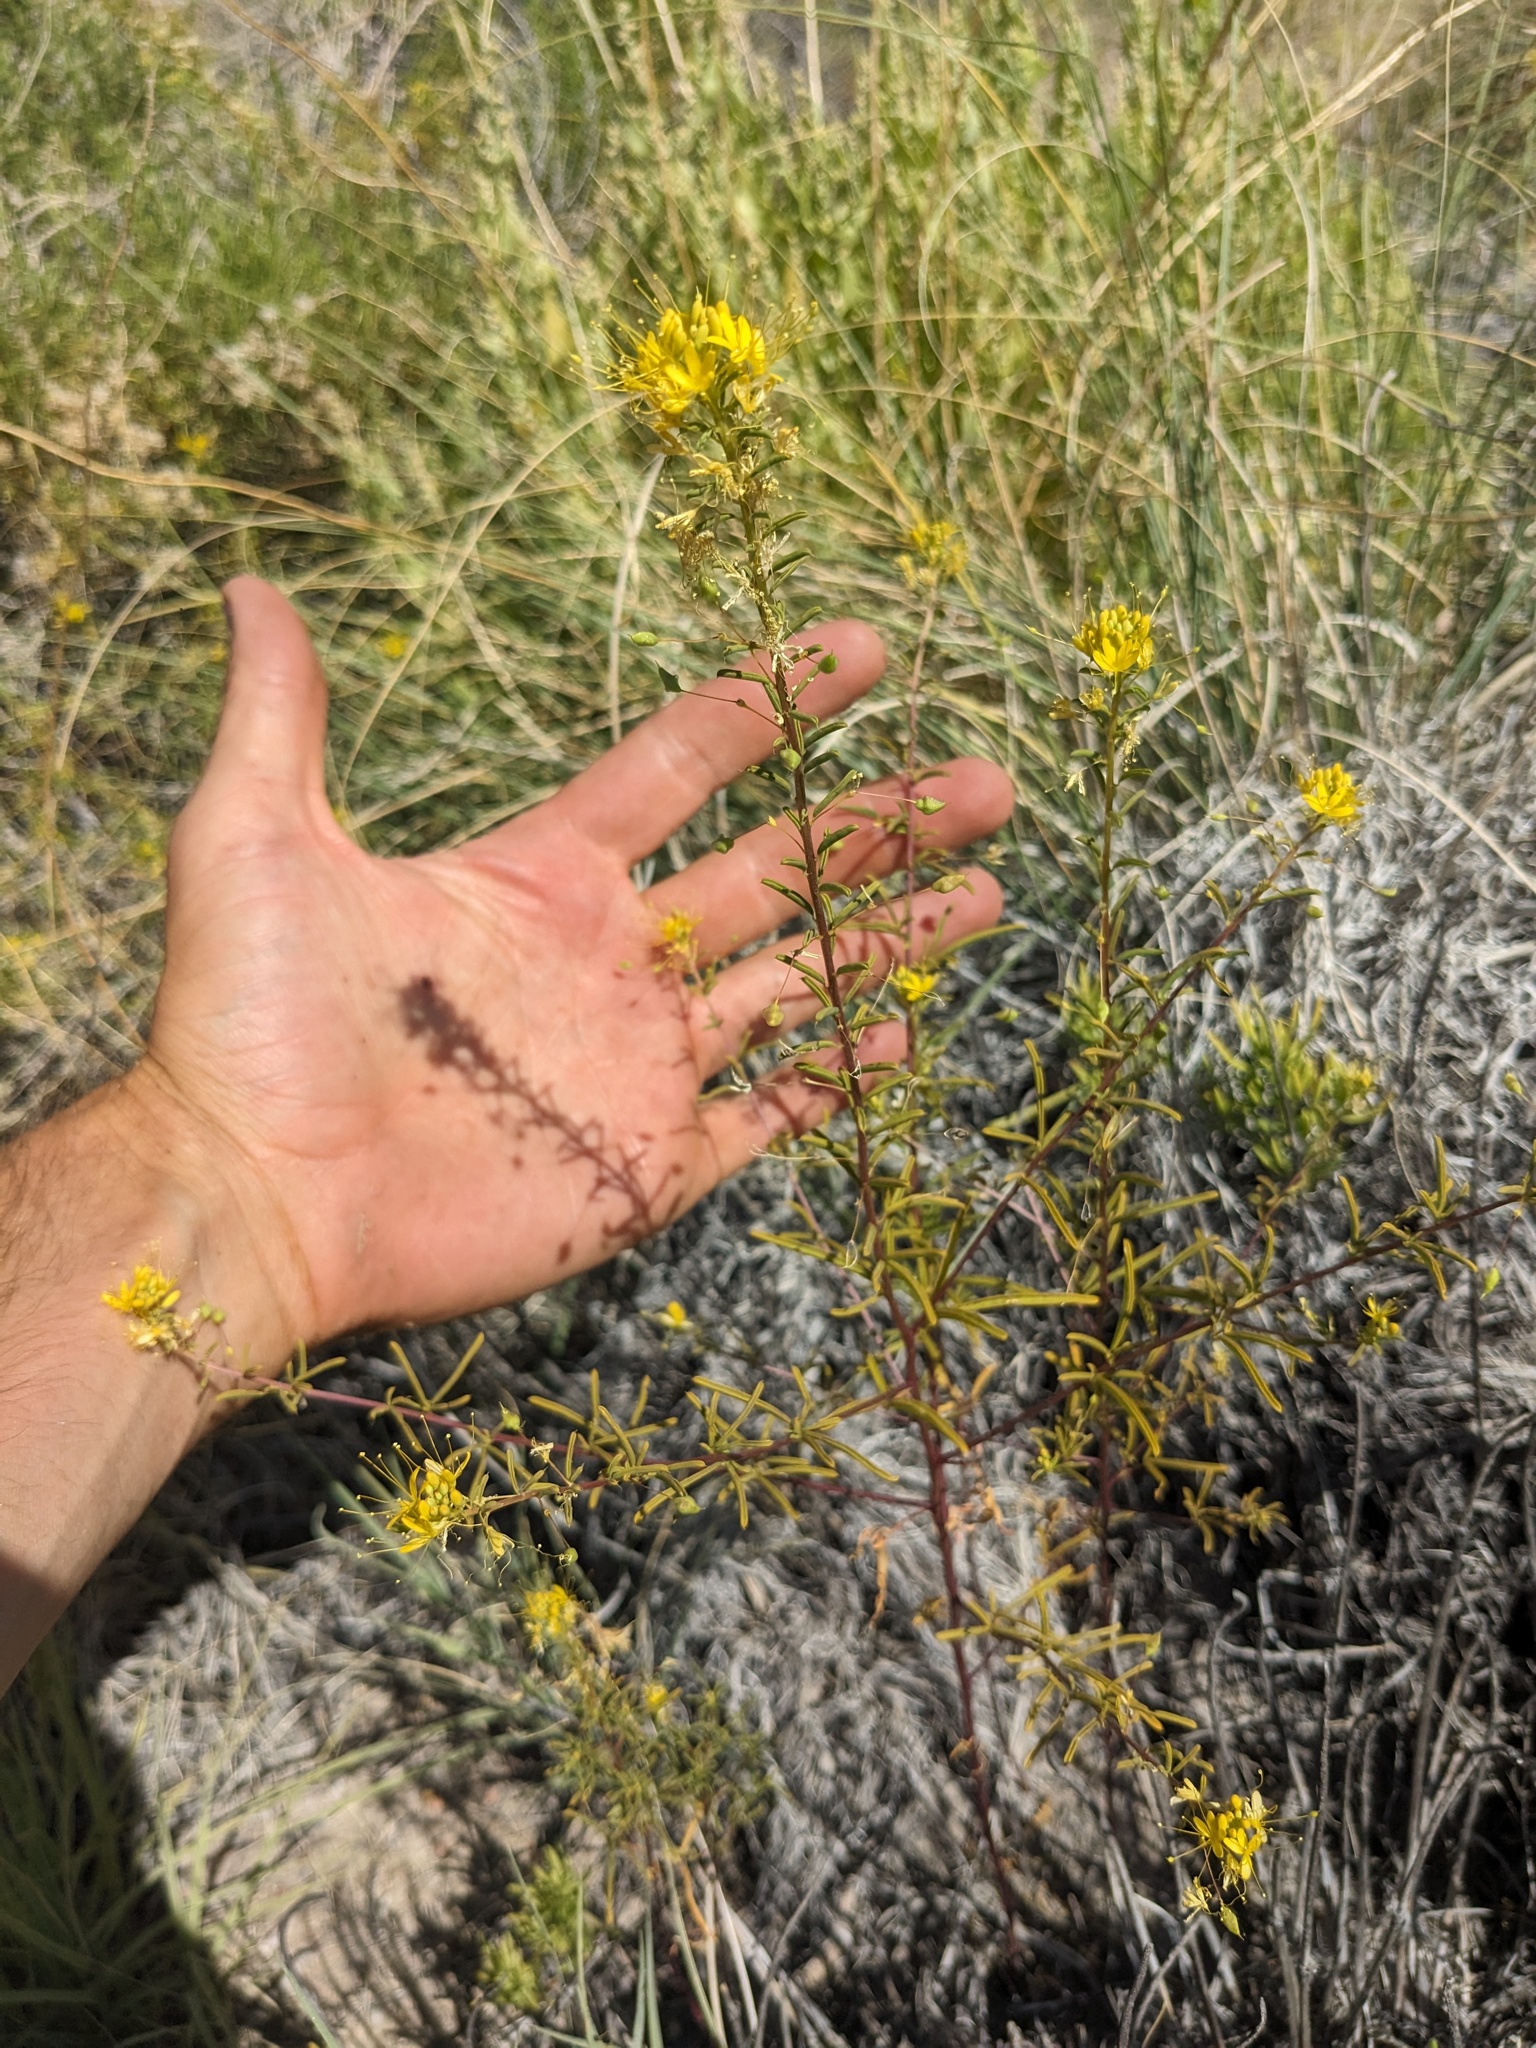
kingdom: Plantae
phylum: Tracheophyta
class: Magnoliopsida
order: Brassicales
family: Cleomaceae
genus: Cleomella
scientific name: Cleomella plocasperma
